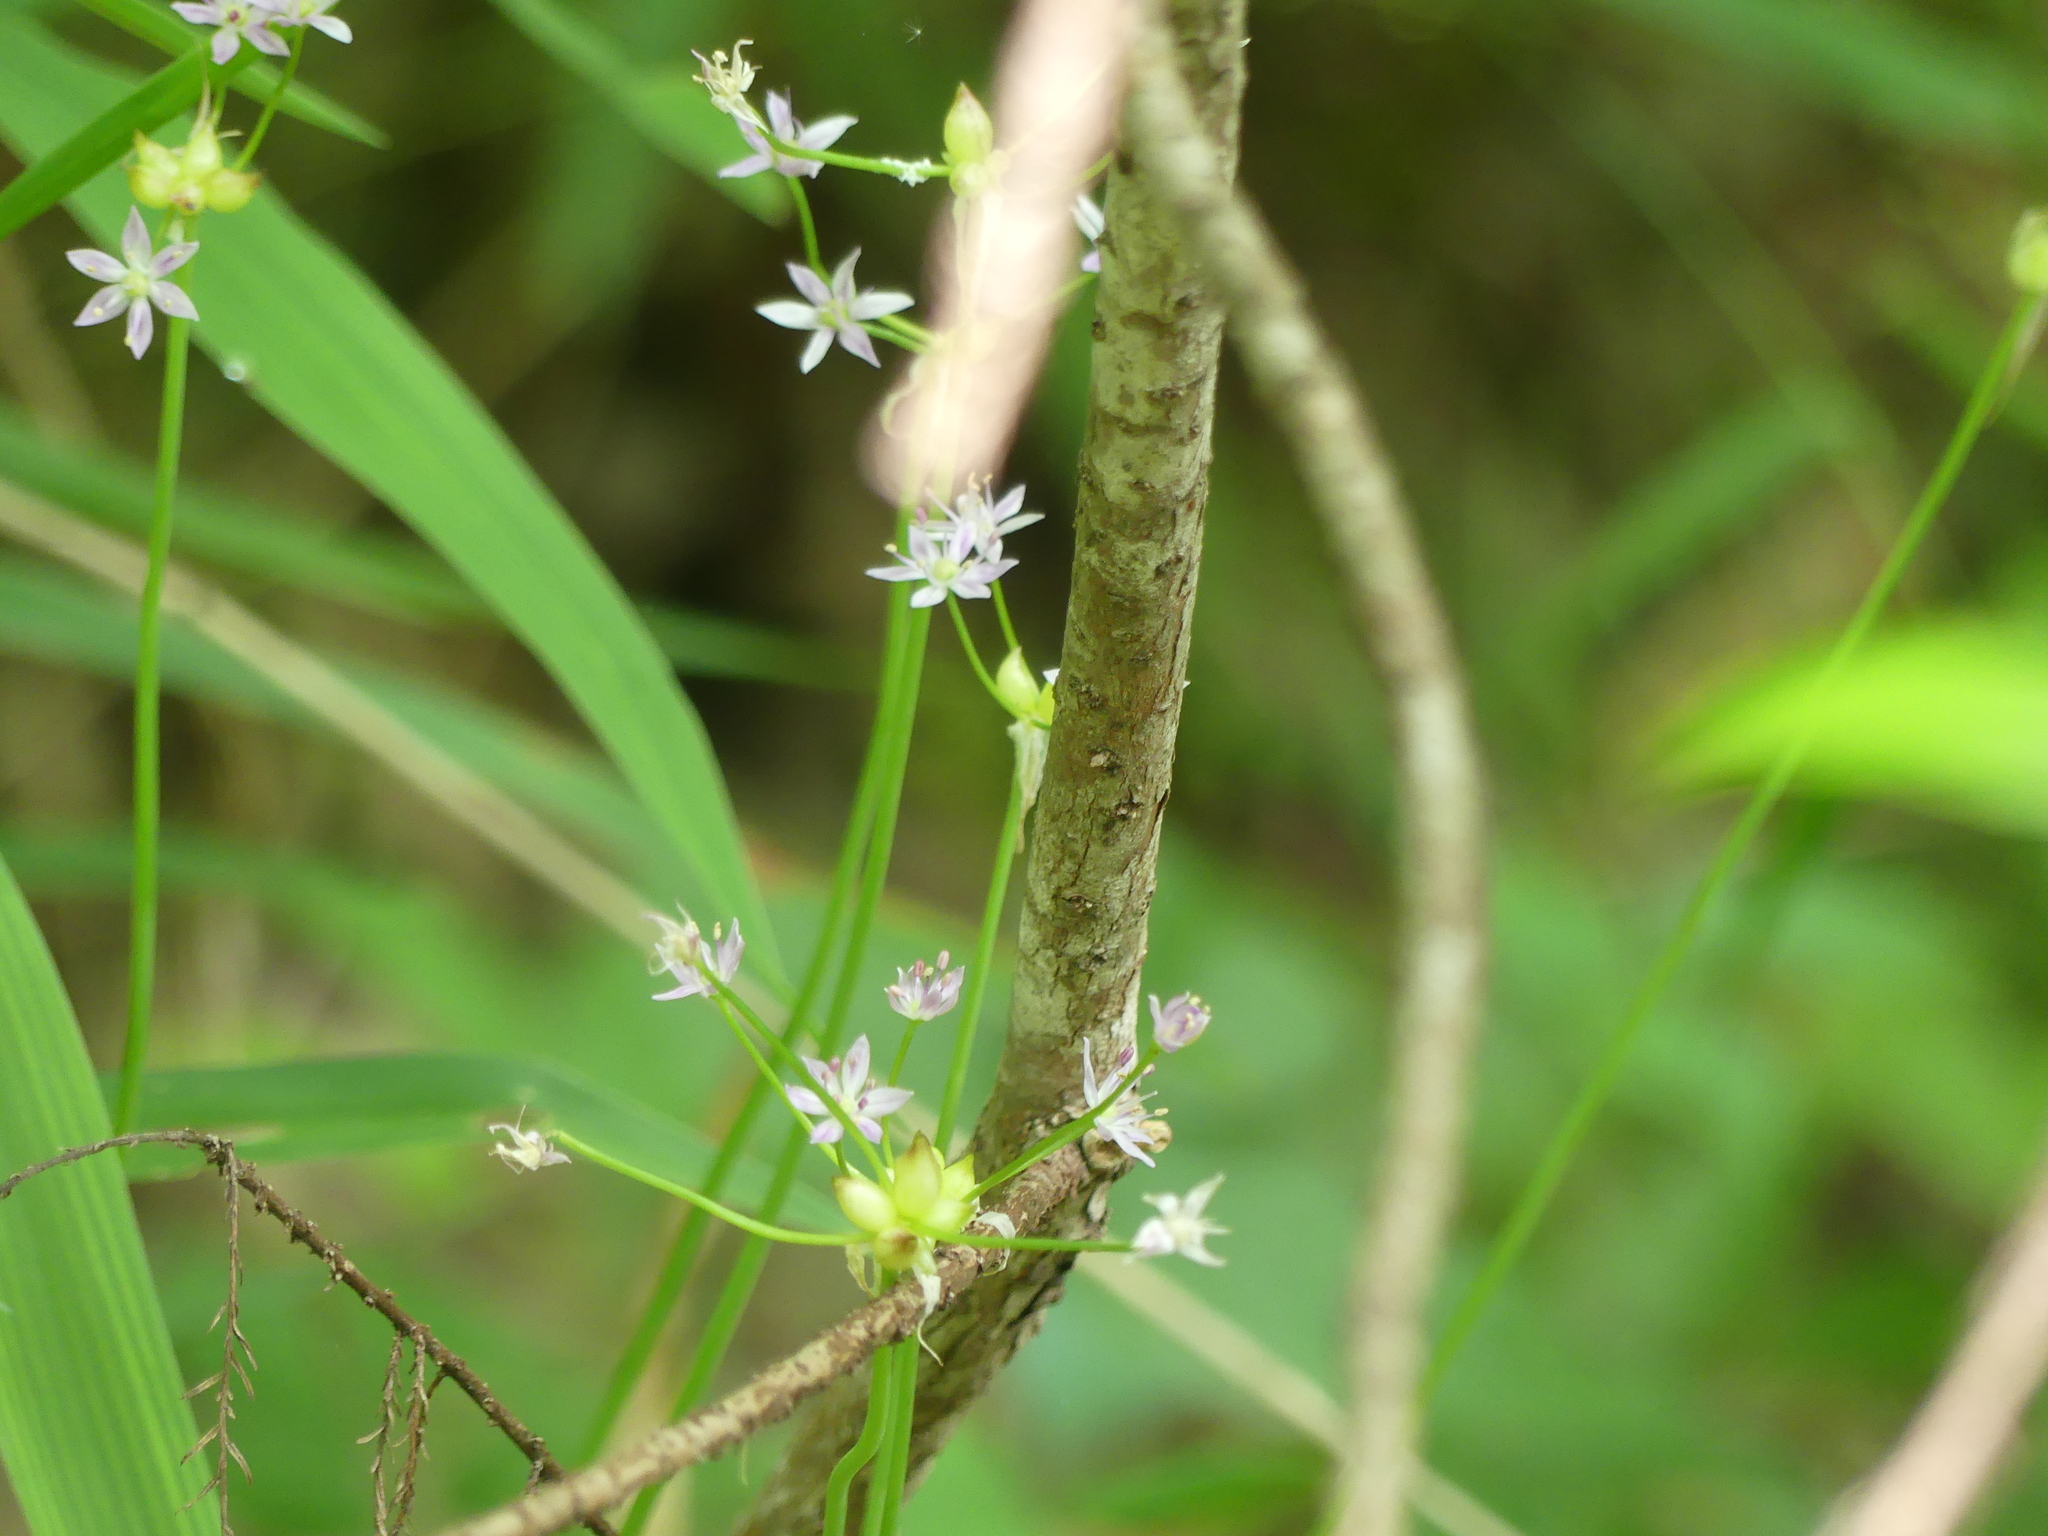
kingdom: Plantae
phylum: Tracheophyta
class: Liliopsida
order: Asparagales
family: Amaryllidaceae
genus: Allium
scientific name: Allium canadense
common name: Meadow garlic
